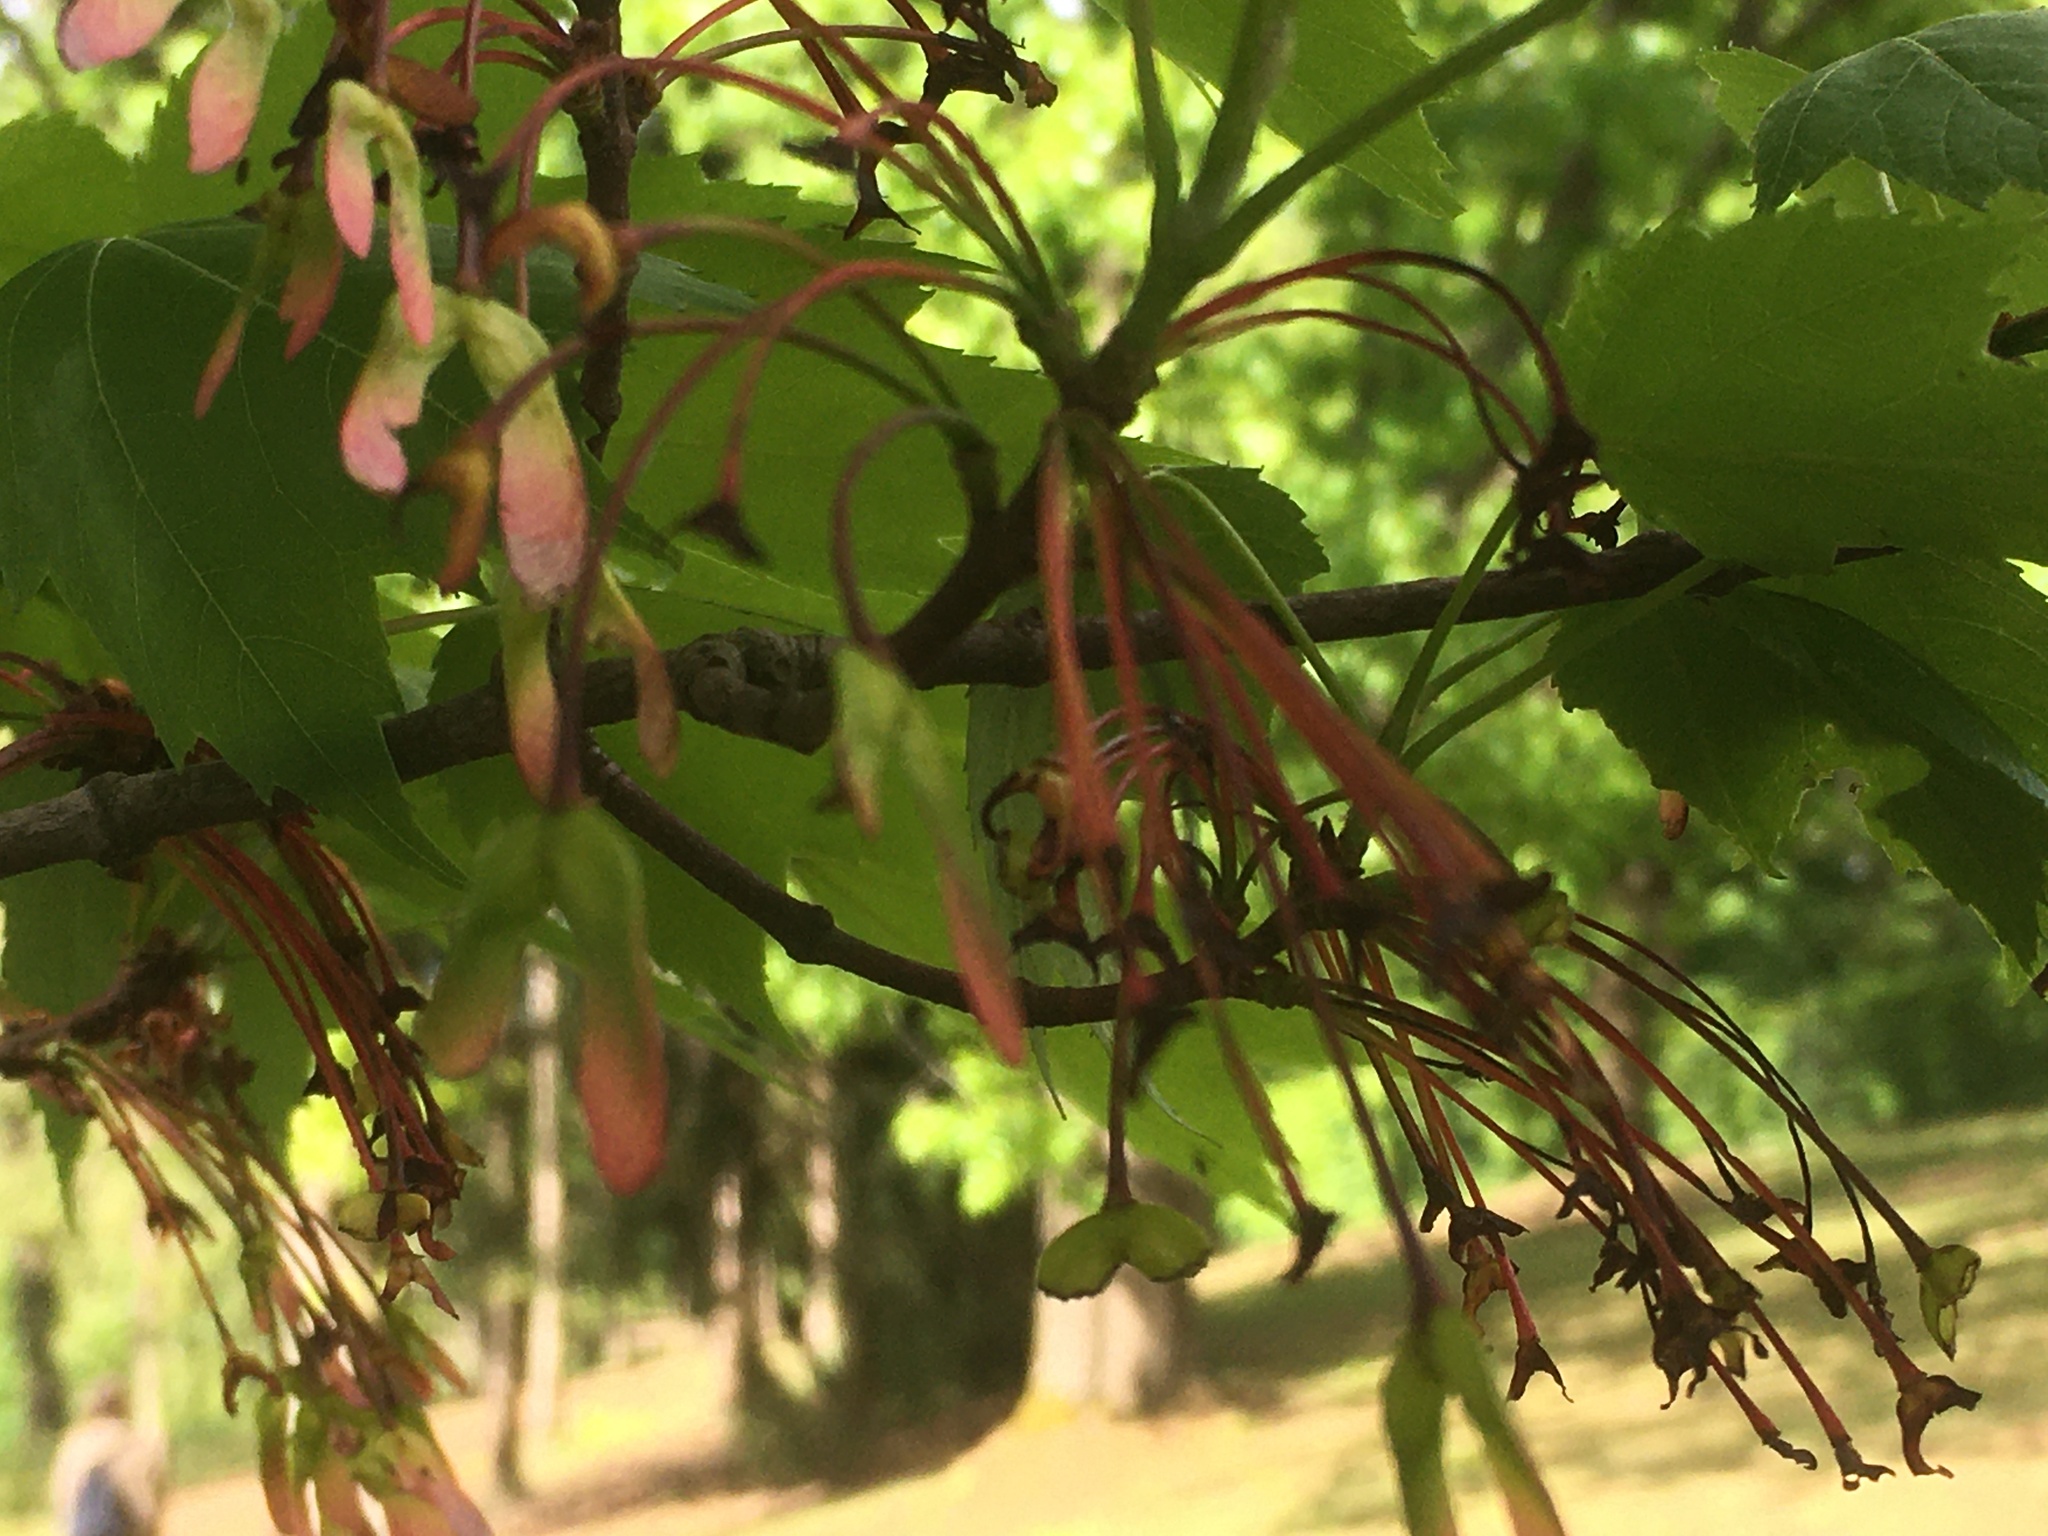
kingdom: Plantae
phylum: Tracheophyta
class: Magnoliopsida
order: Sapindales
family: Sapindaceae
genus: Acer
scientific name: Acer rubrum
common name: Red maple
